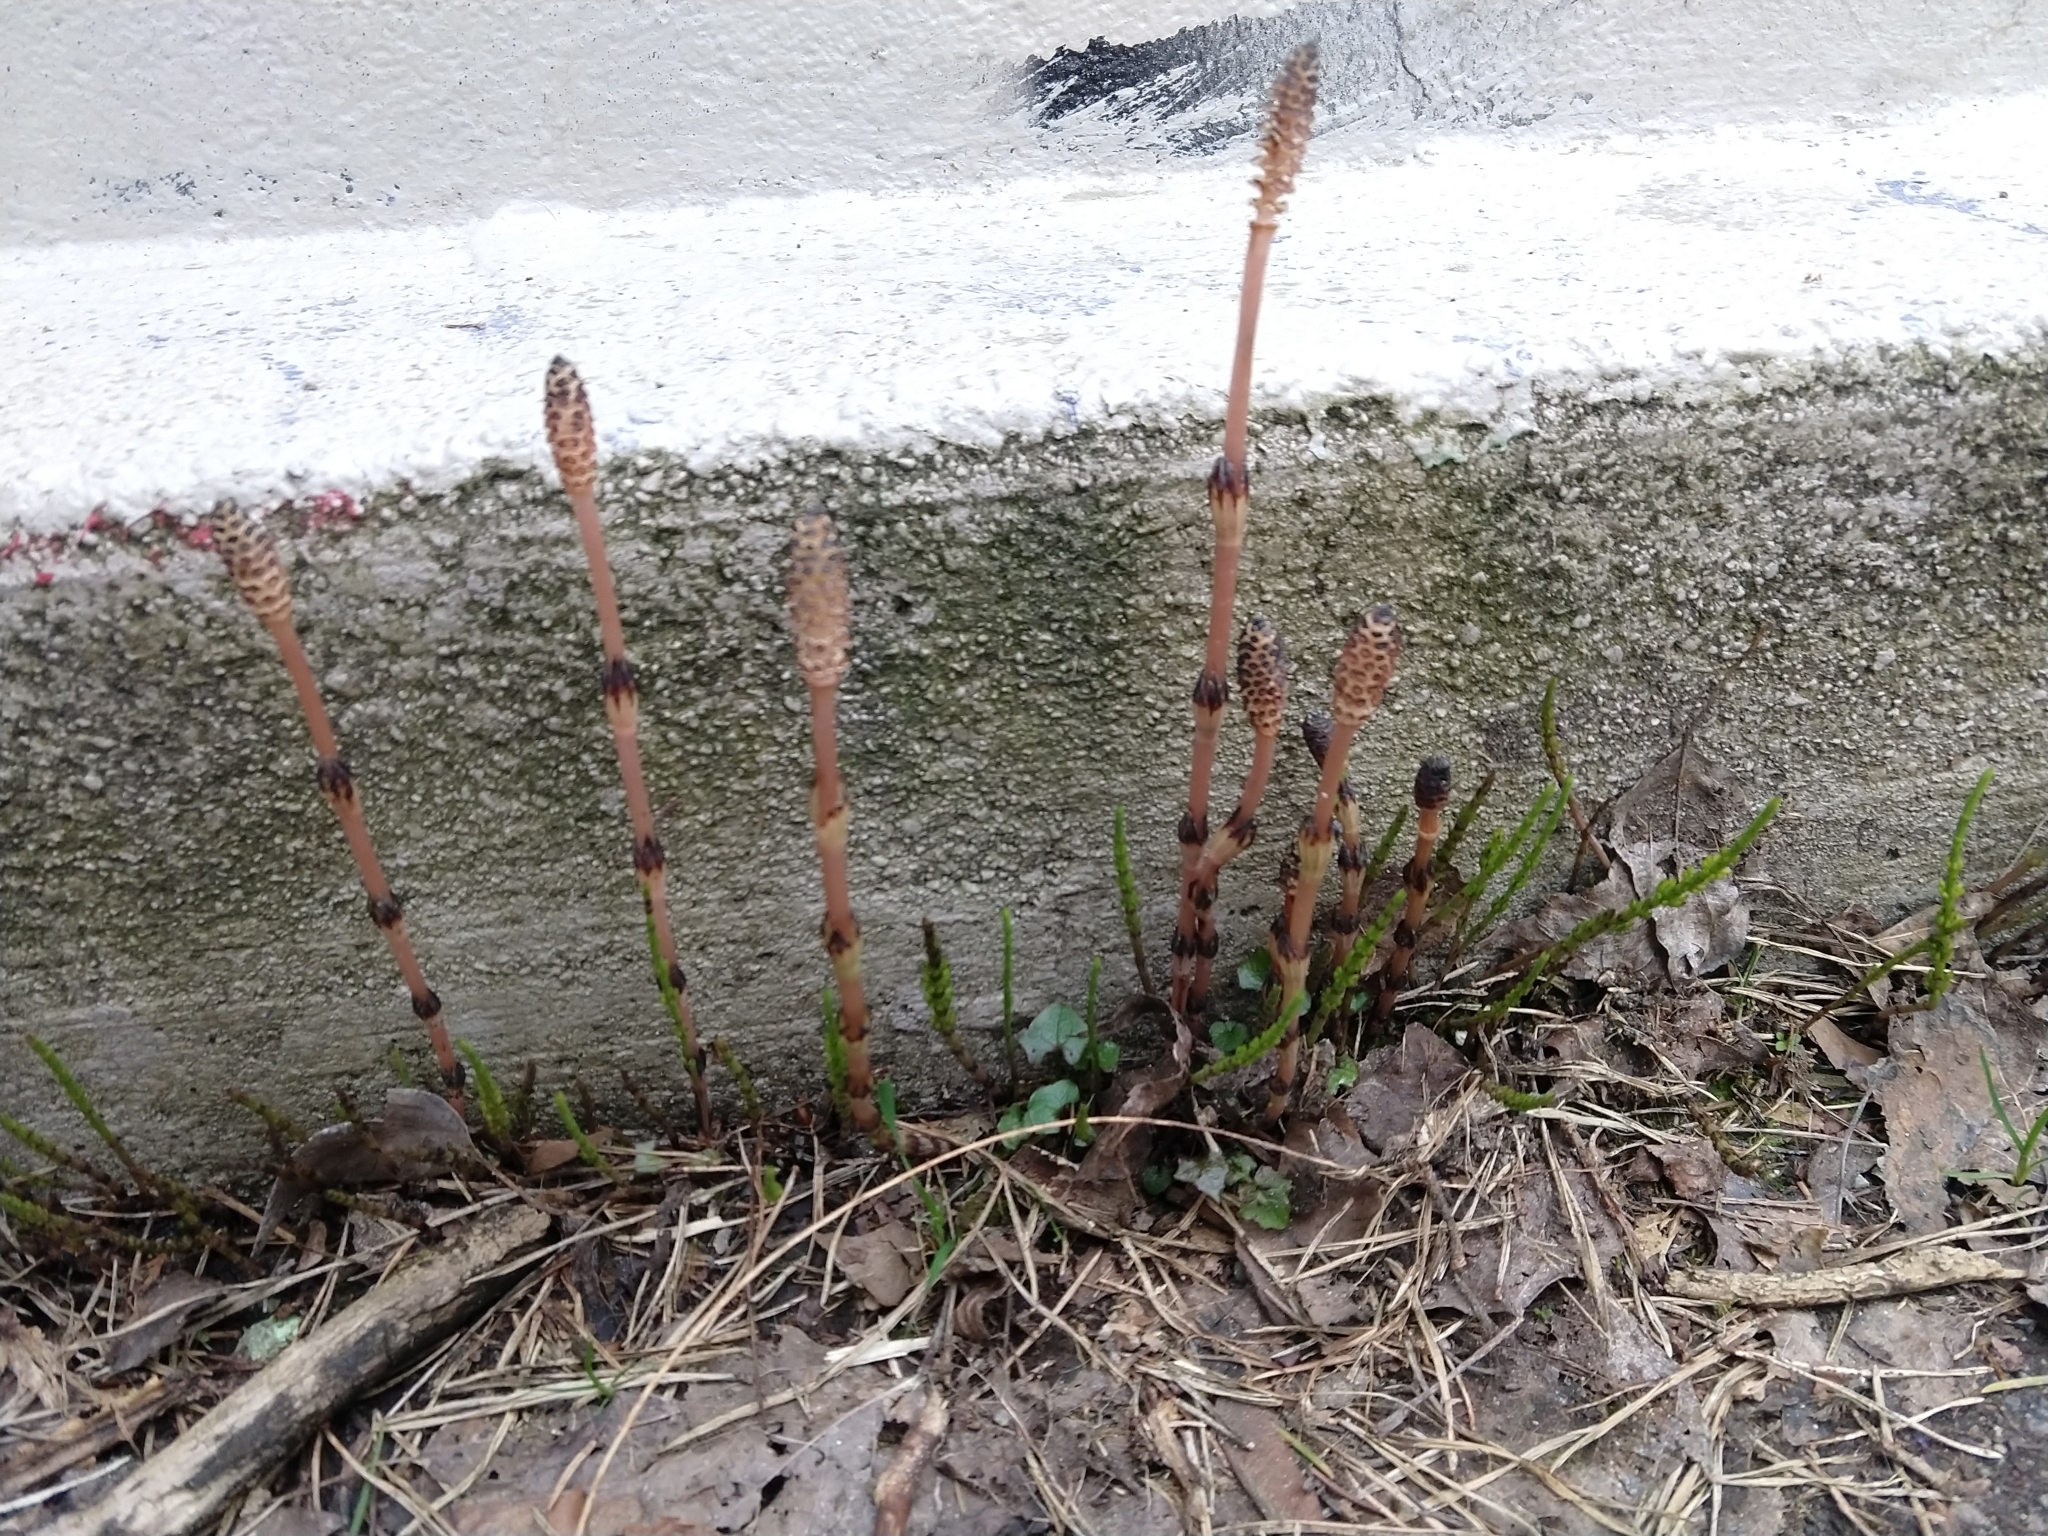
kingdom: Plantae
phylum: Tracheophyta
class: Polypodiopsida
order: Equisetales
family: Equisetaceae
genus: Equisetum
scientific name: Equisetum arvense
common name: Field horsetail
